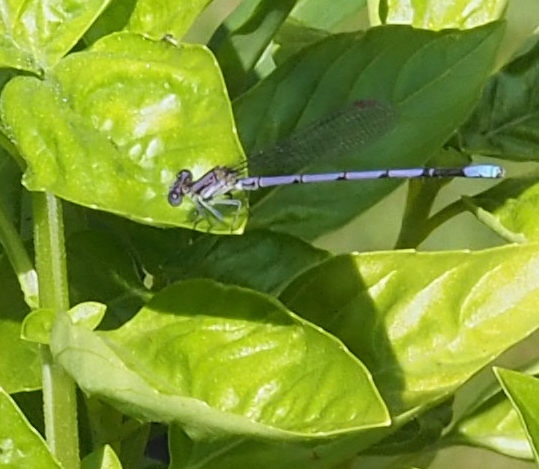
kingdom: Animalia
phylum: Arthropoda
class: Insecta
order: Odonata
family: Coenagrionidae
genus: Argia
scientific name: Argia fumipennis
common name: Variable dancer
